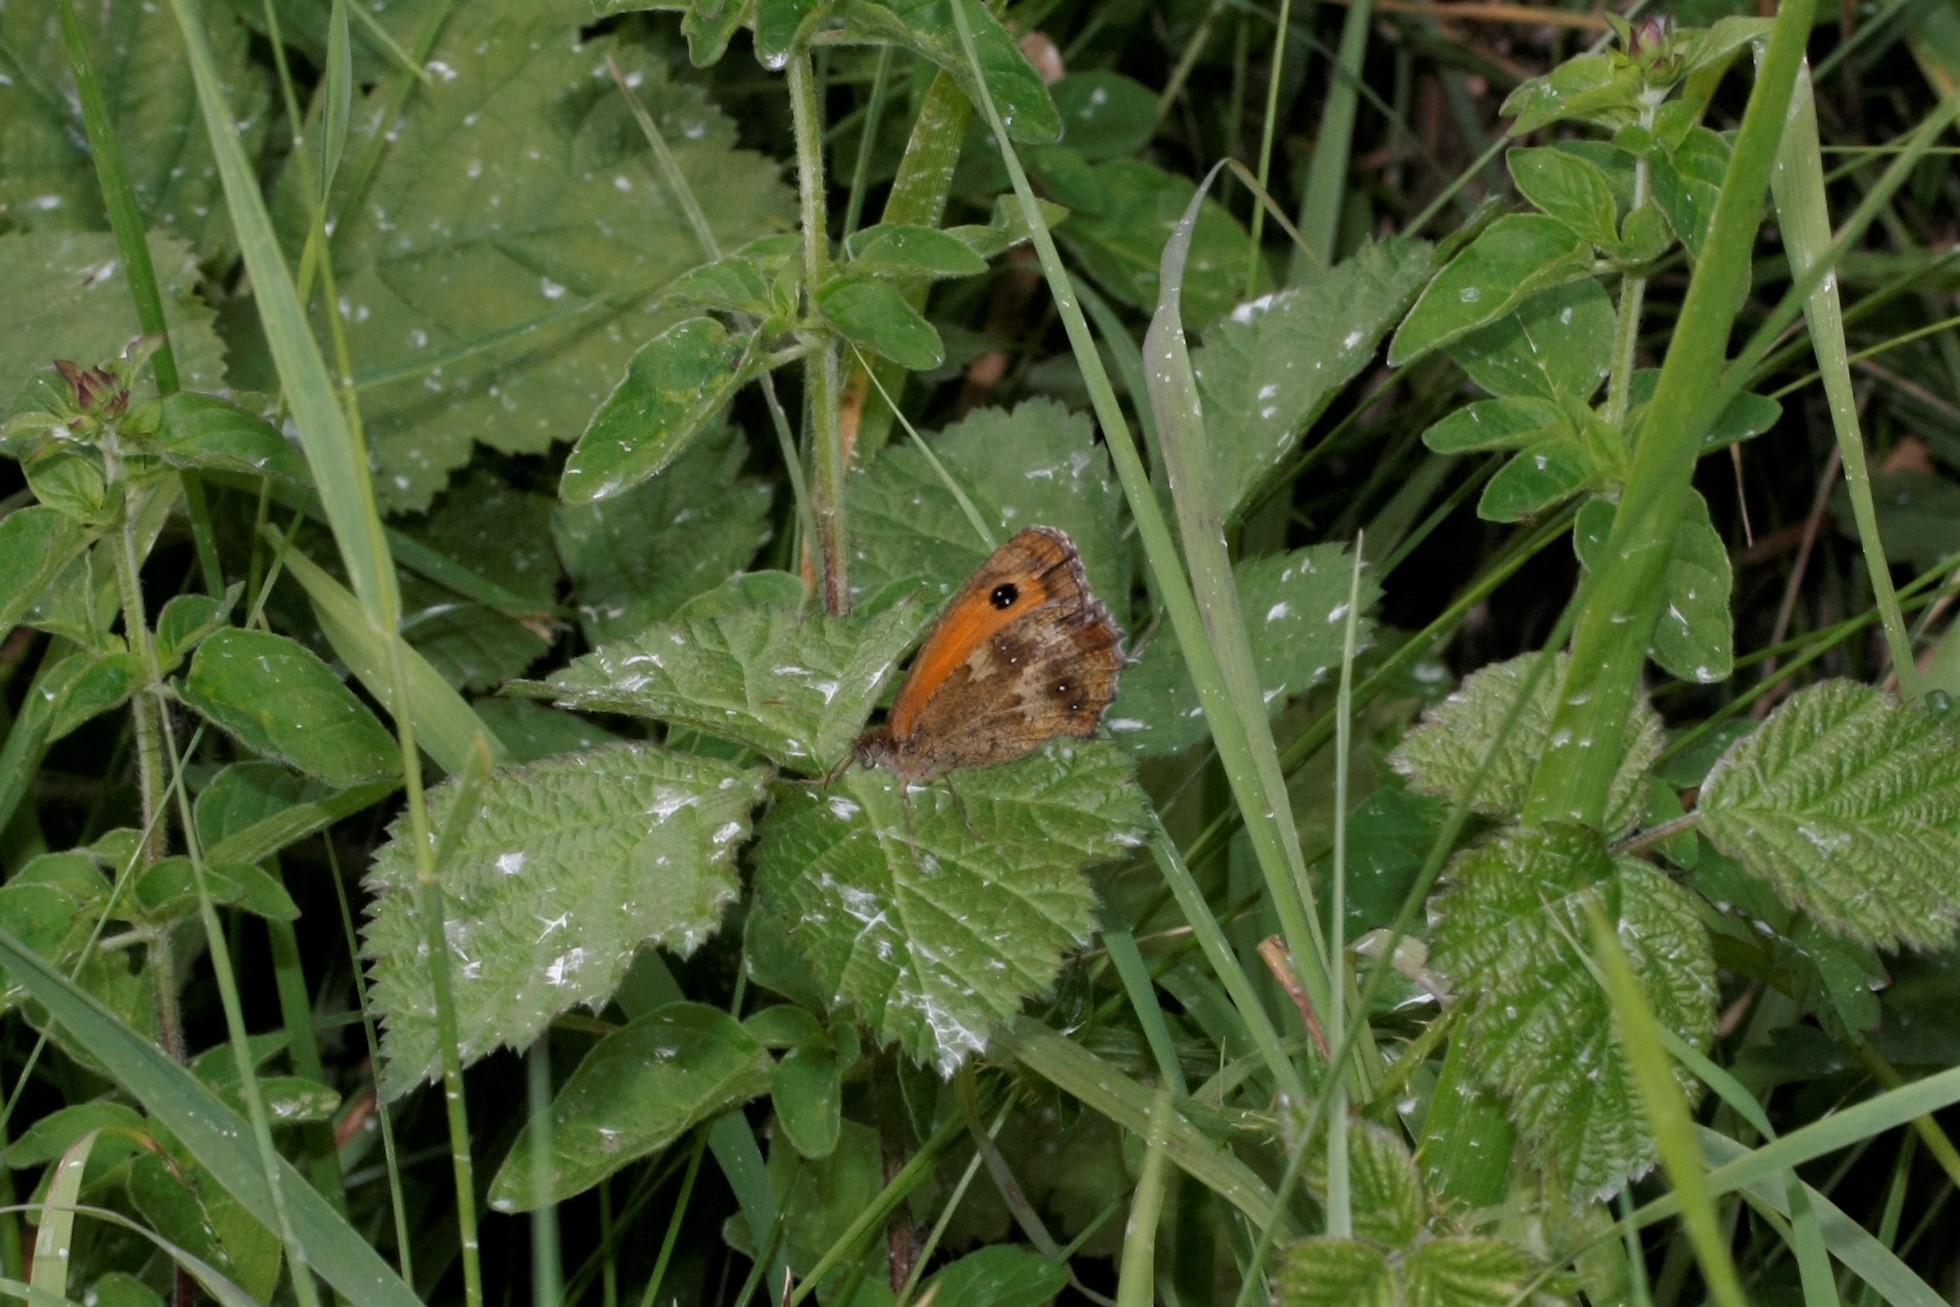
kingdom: Animalia
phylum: Arthropoda
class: Insecta
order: Lepidoptera
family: Nymphalidae
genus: Pyronia
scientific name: Pyronia tithonus
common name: Gatekeeper
